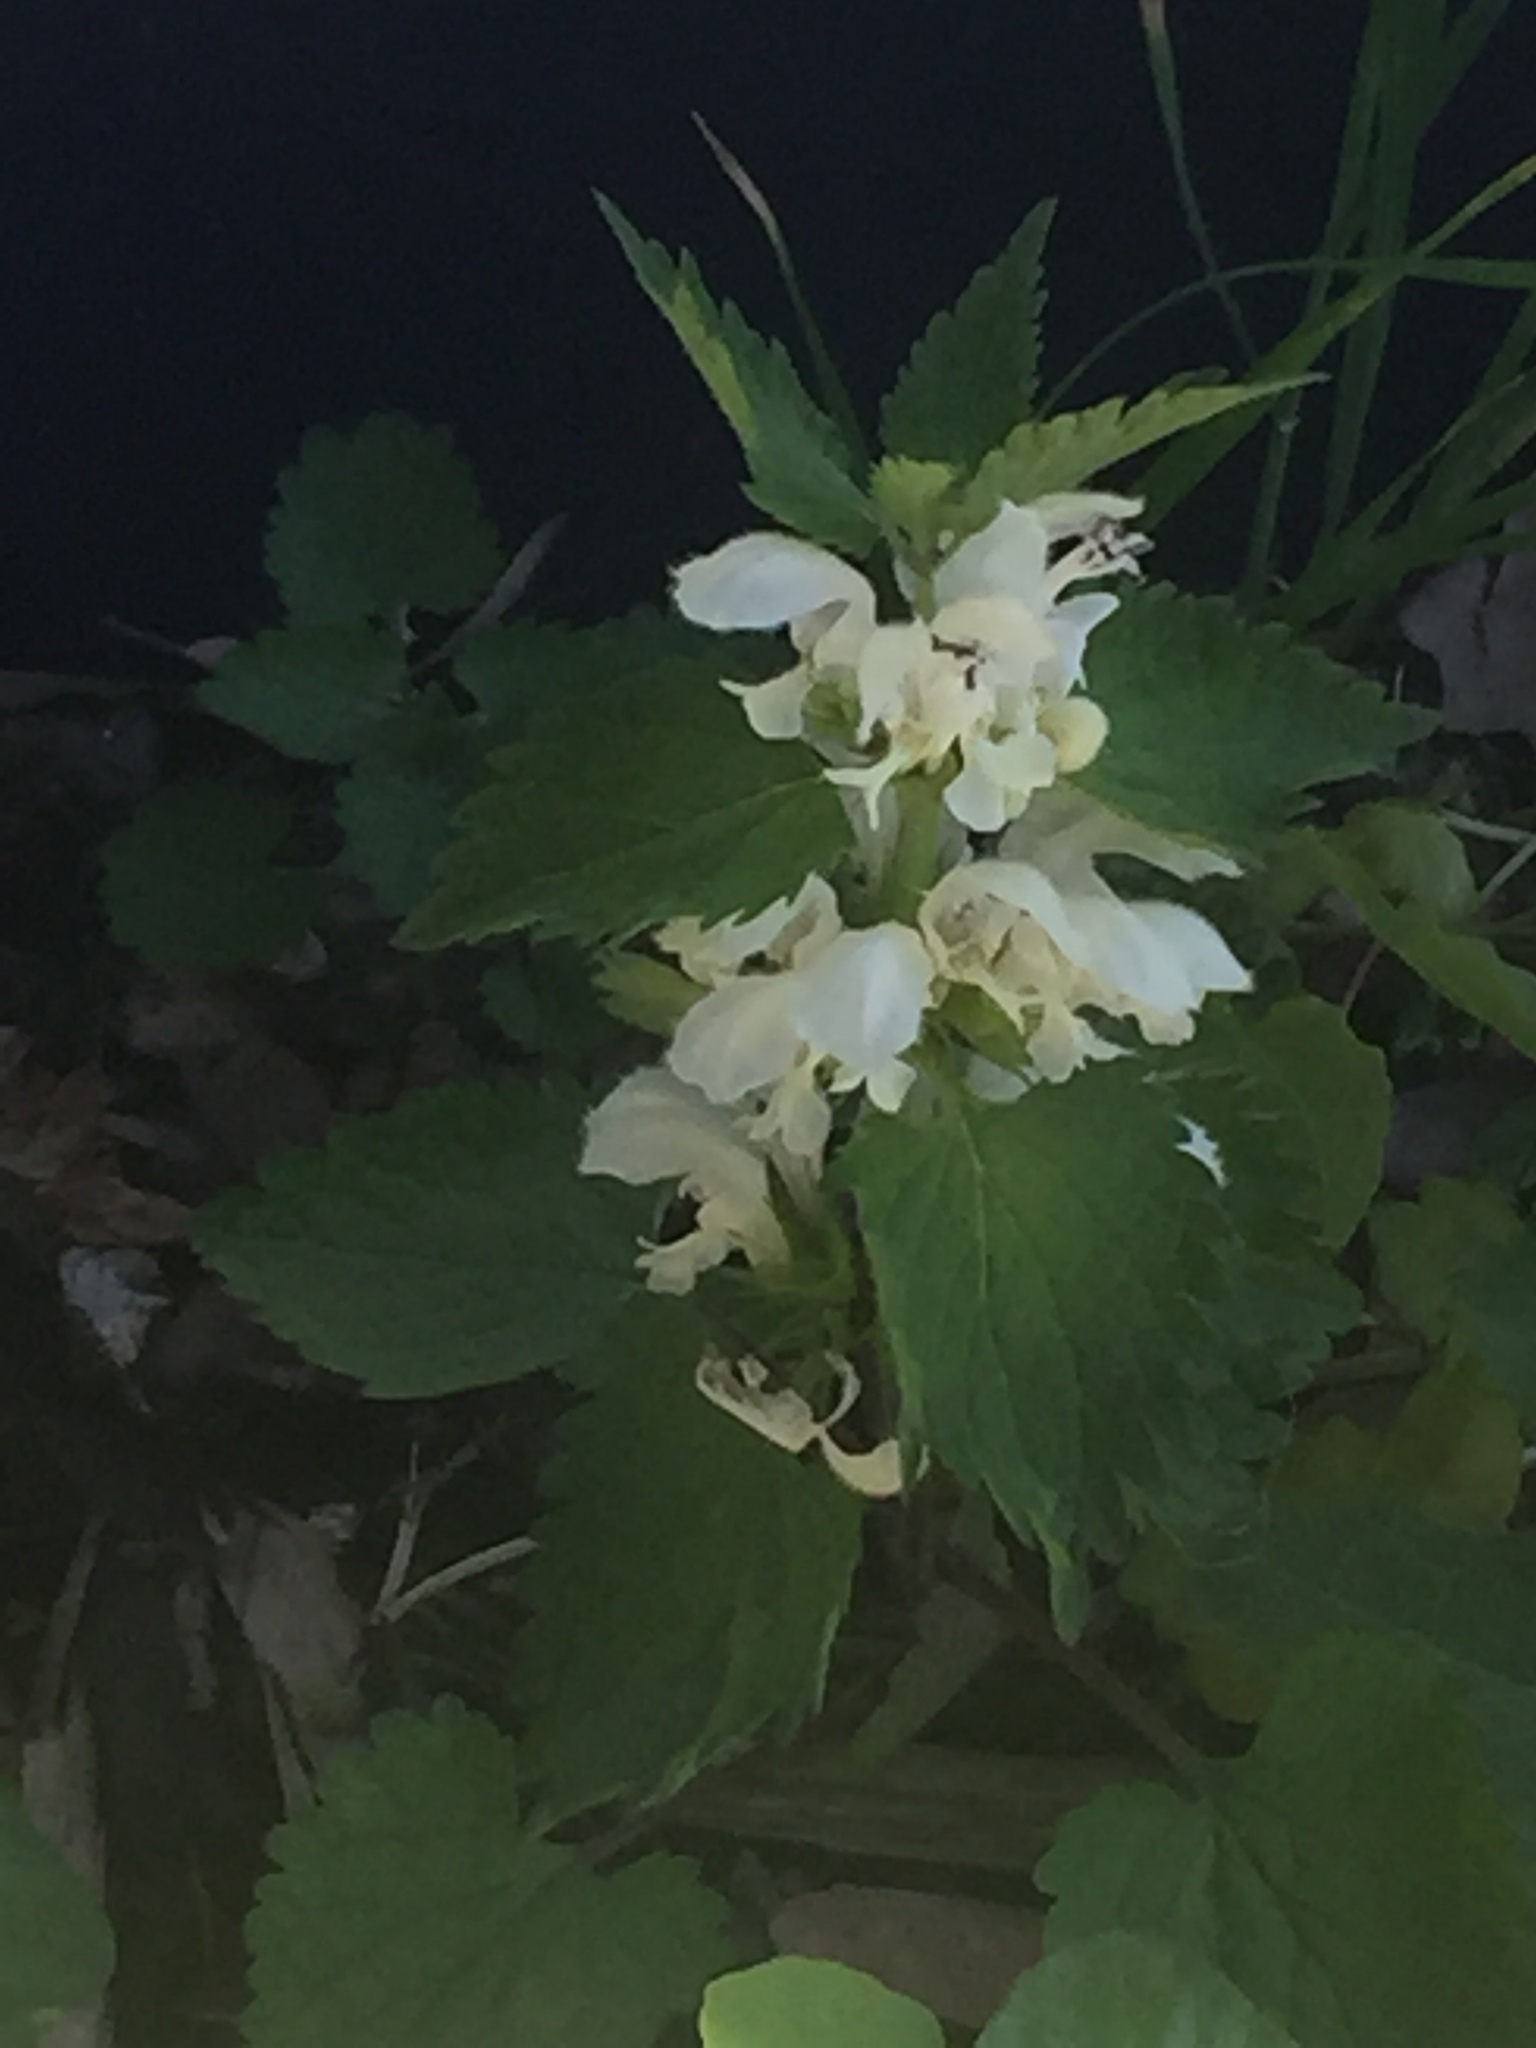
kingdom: Plantae
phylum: Tracheophyta
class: Magnoliopsida
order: Lamiales
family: Lamiaceae
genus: Lamium
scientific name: Lamium album
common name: White dead-nettle
